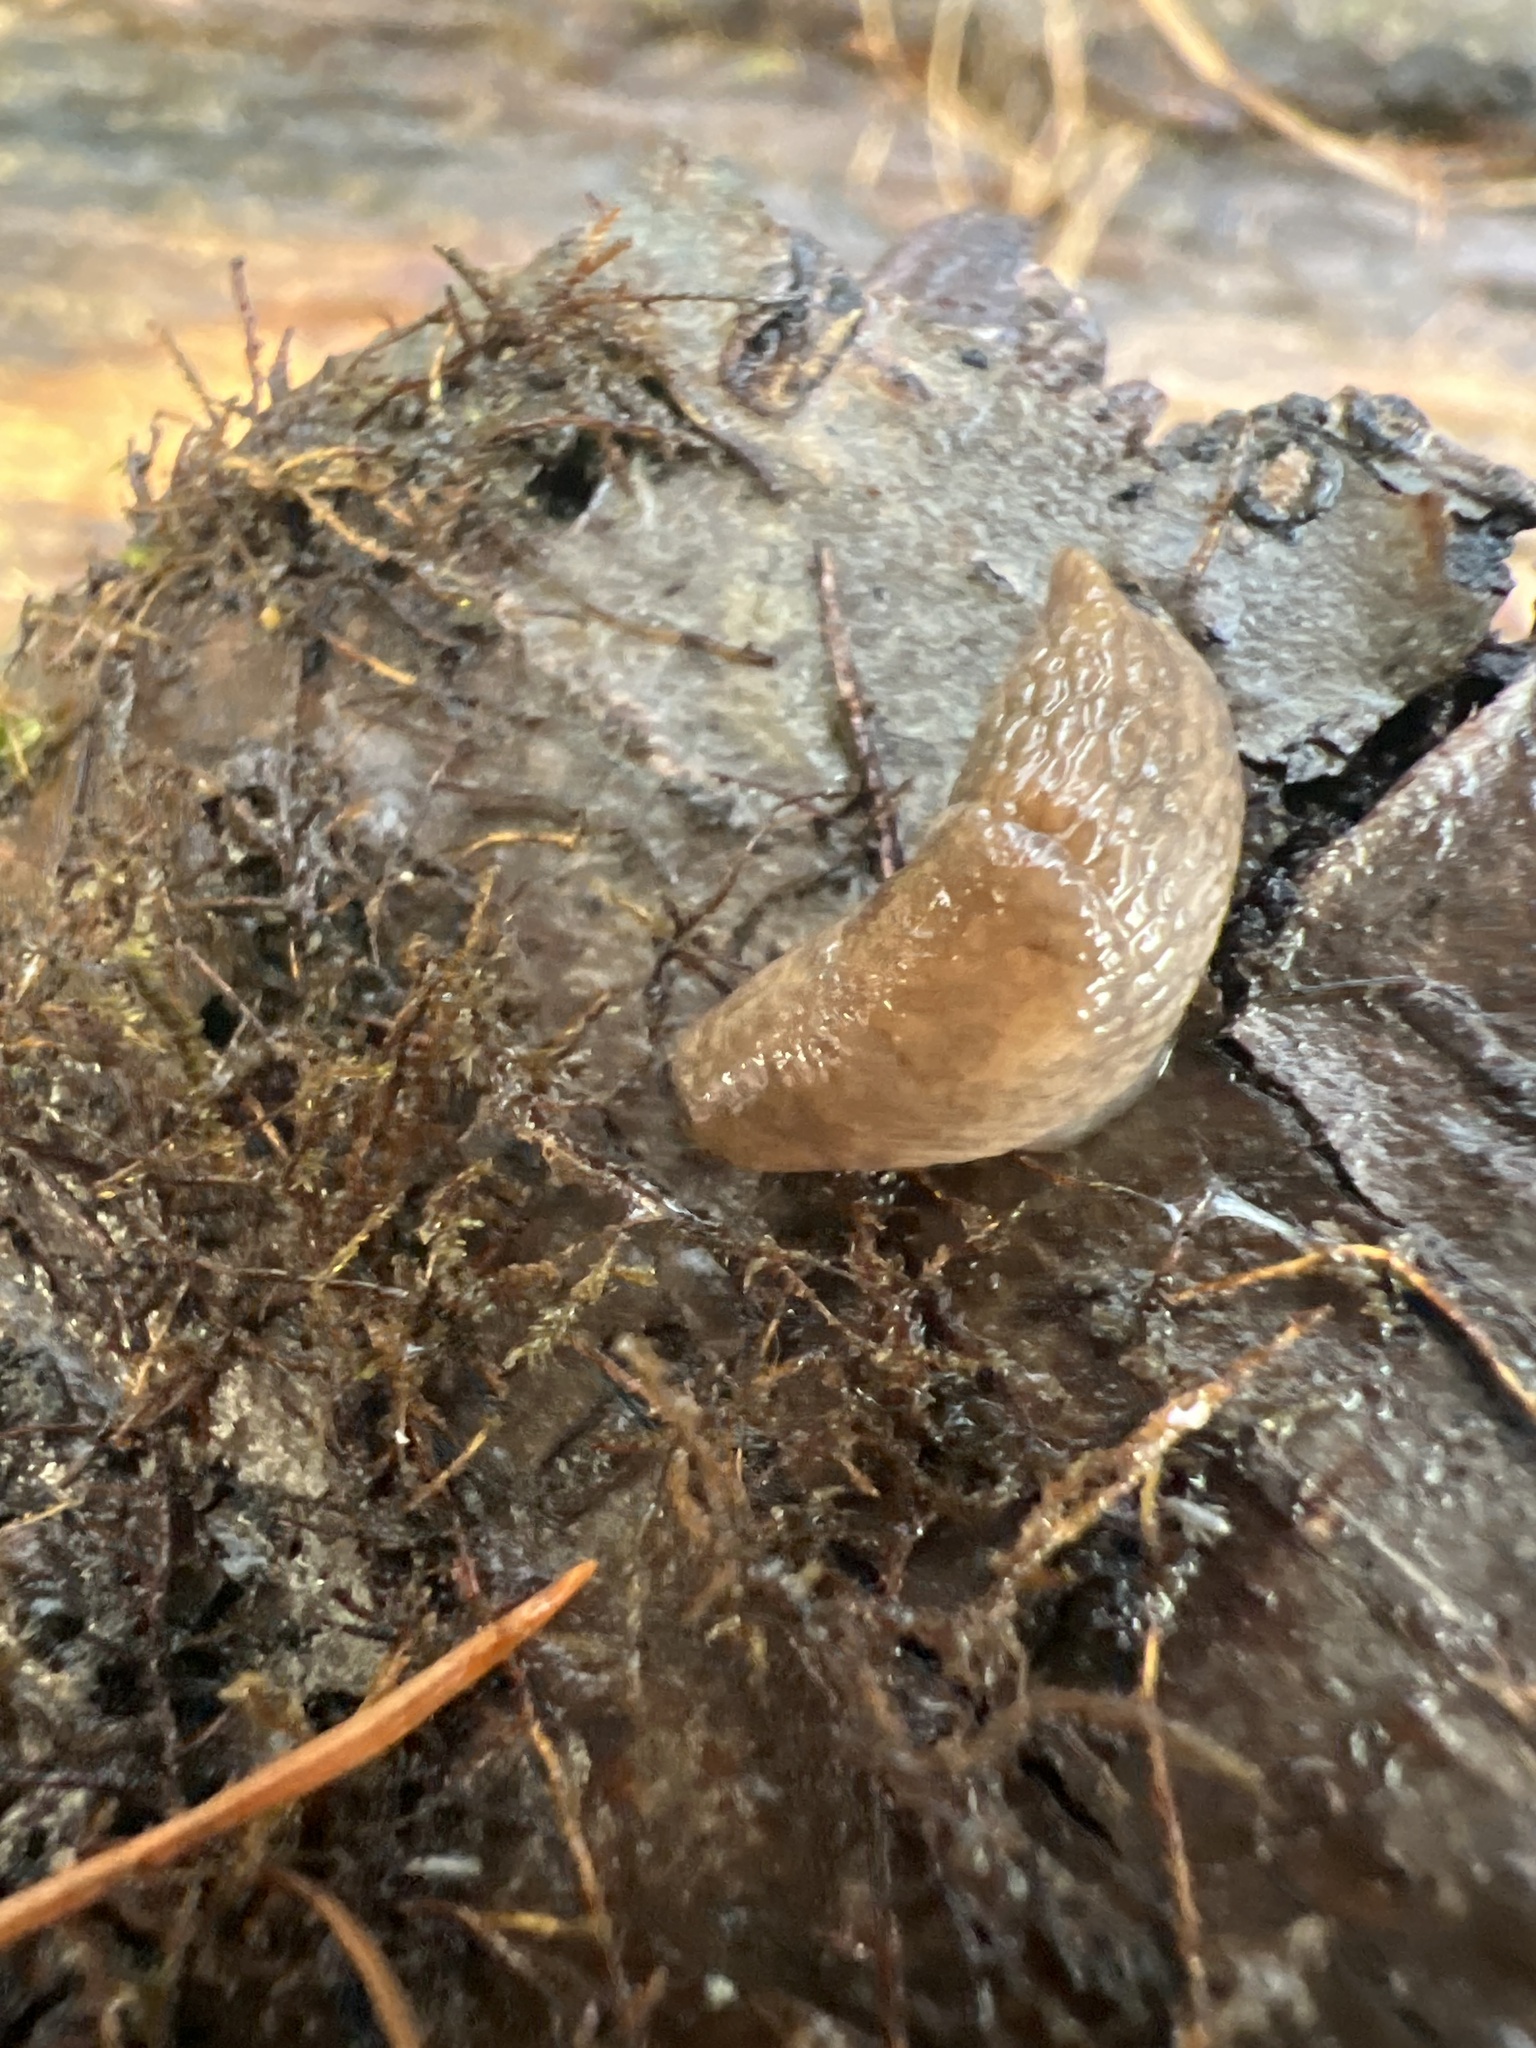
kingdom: Animalia
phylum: Mollusca
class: Gastropoda
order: Stylommatophora
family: Agriolimacidae
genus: Deroceras
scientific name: Deroceras reticulatum
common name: Gray field slug
